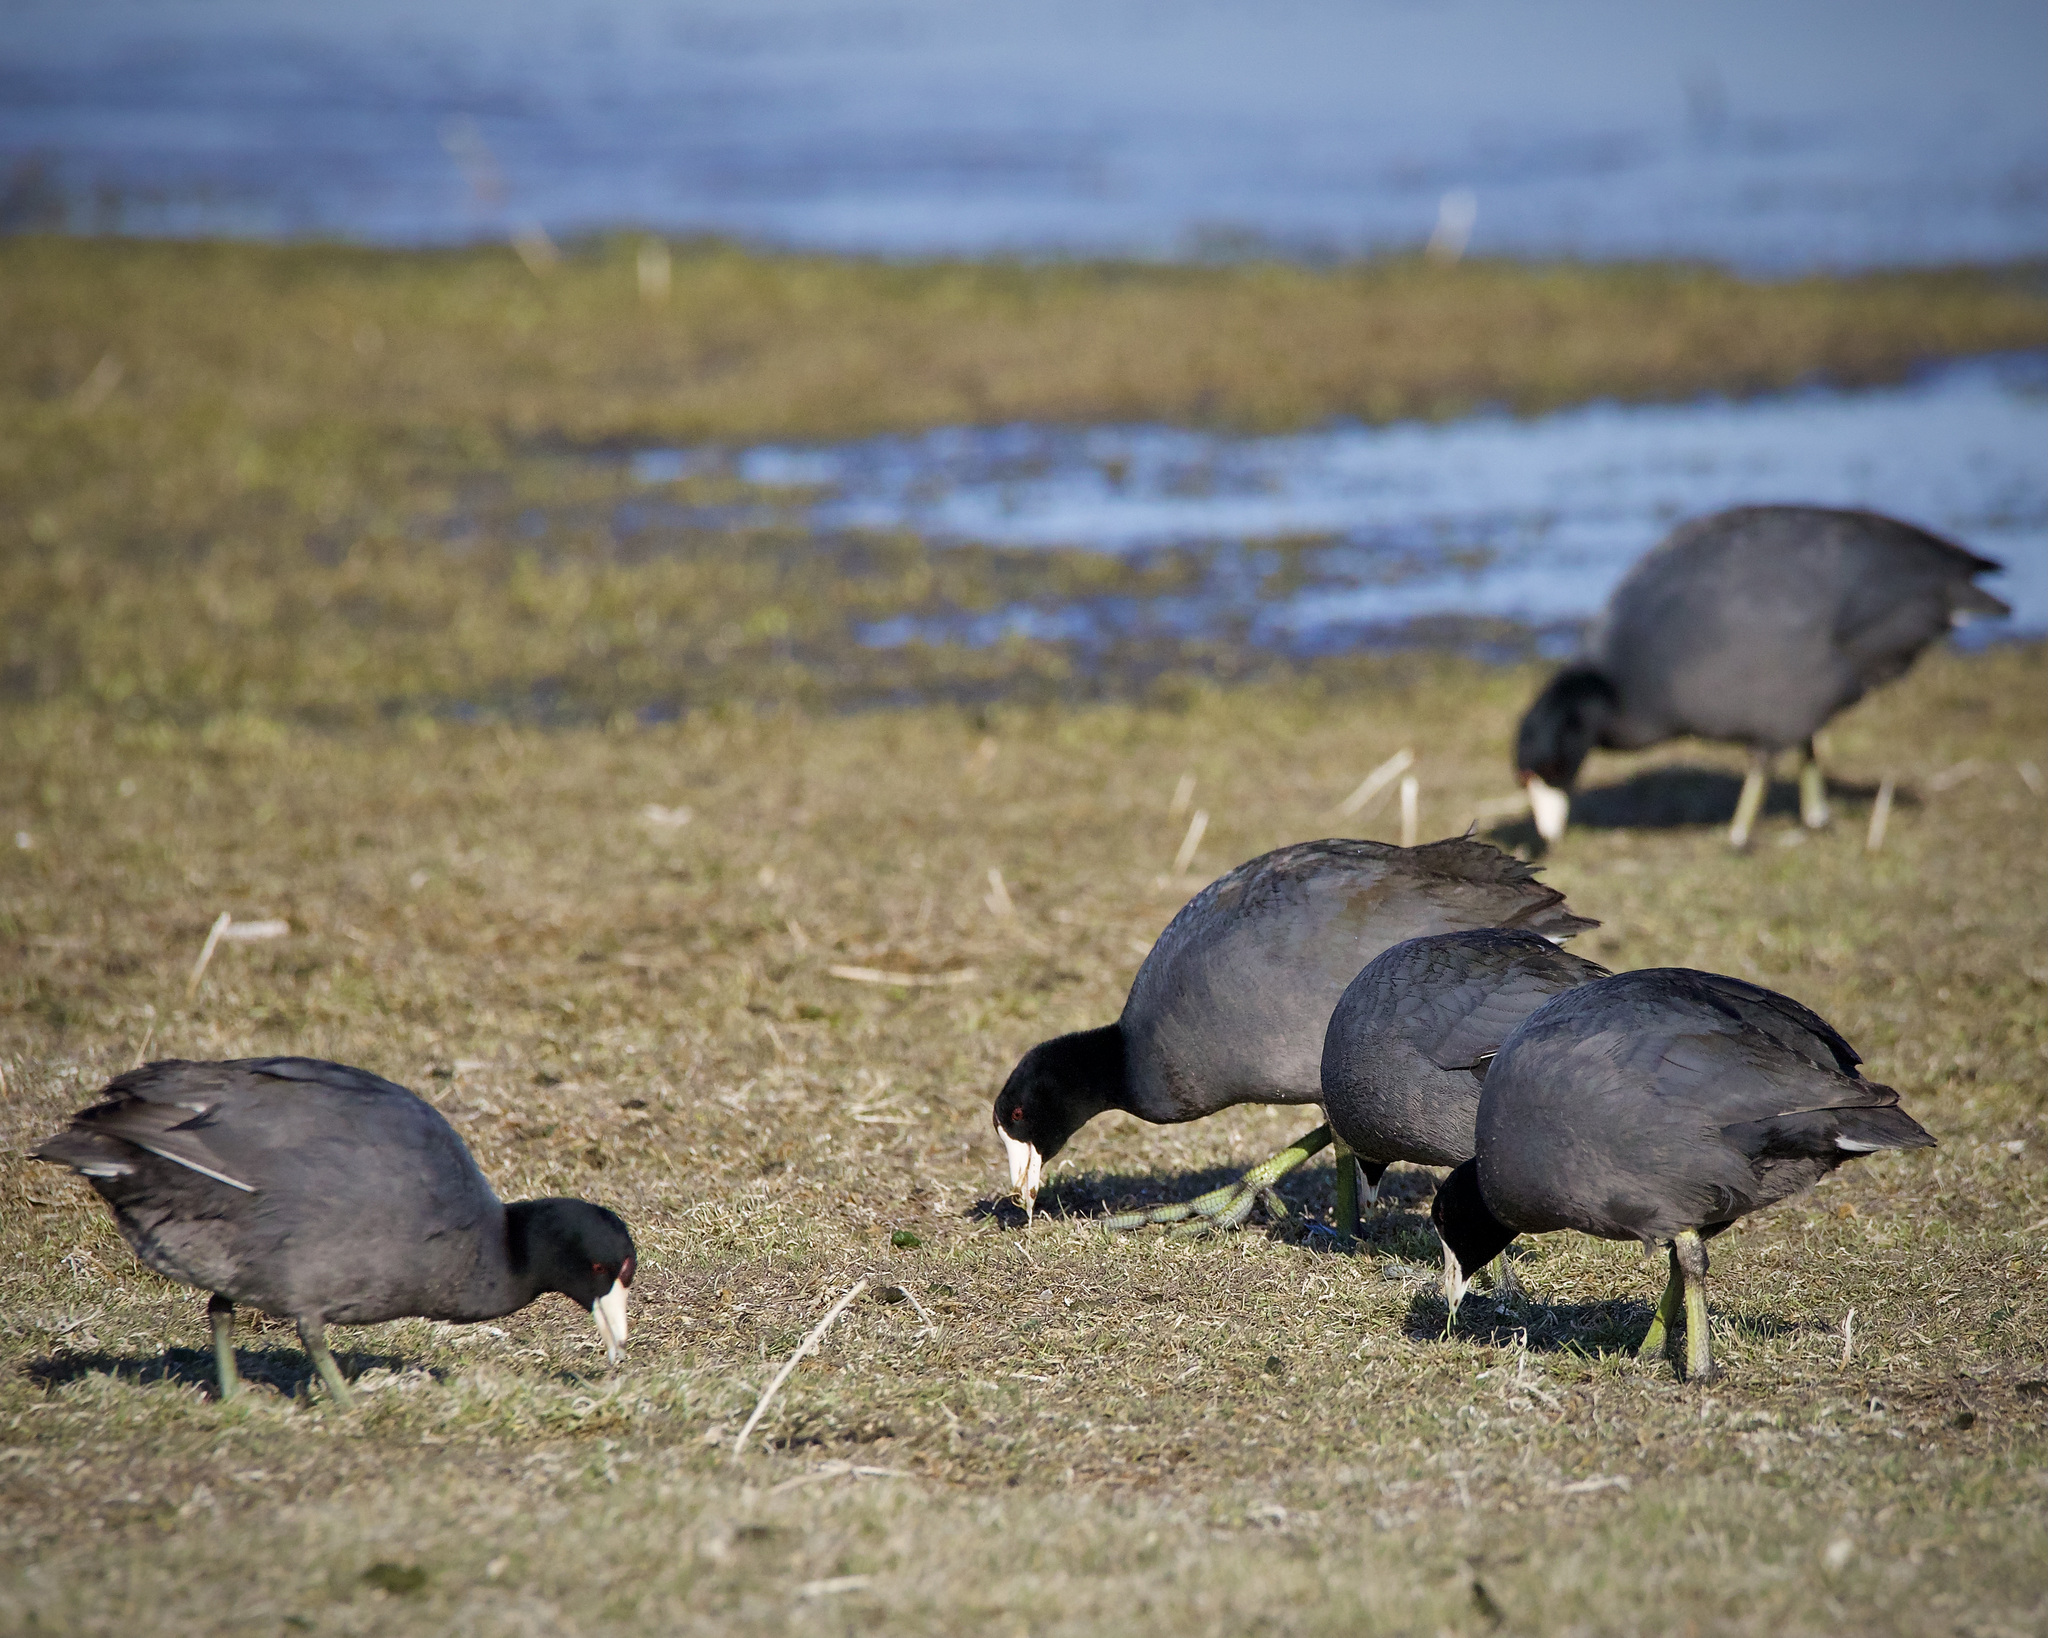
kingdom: Animalia
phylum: Chordata
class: Aves
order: Gruiformes
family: Rallidae
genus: Fulica
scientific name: Fulica americana
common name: American coot
